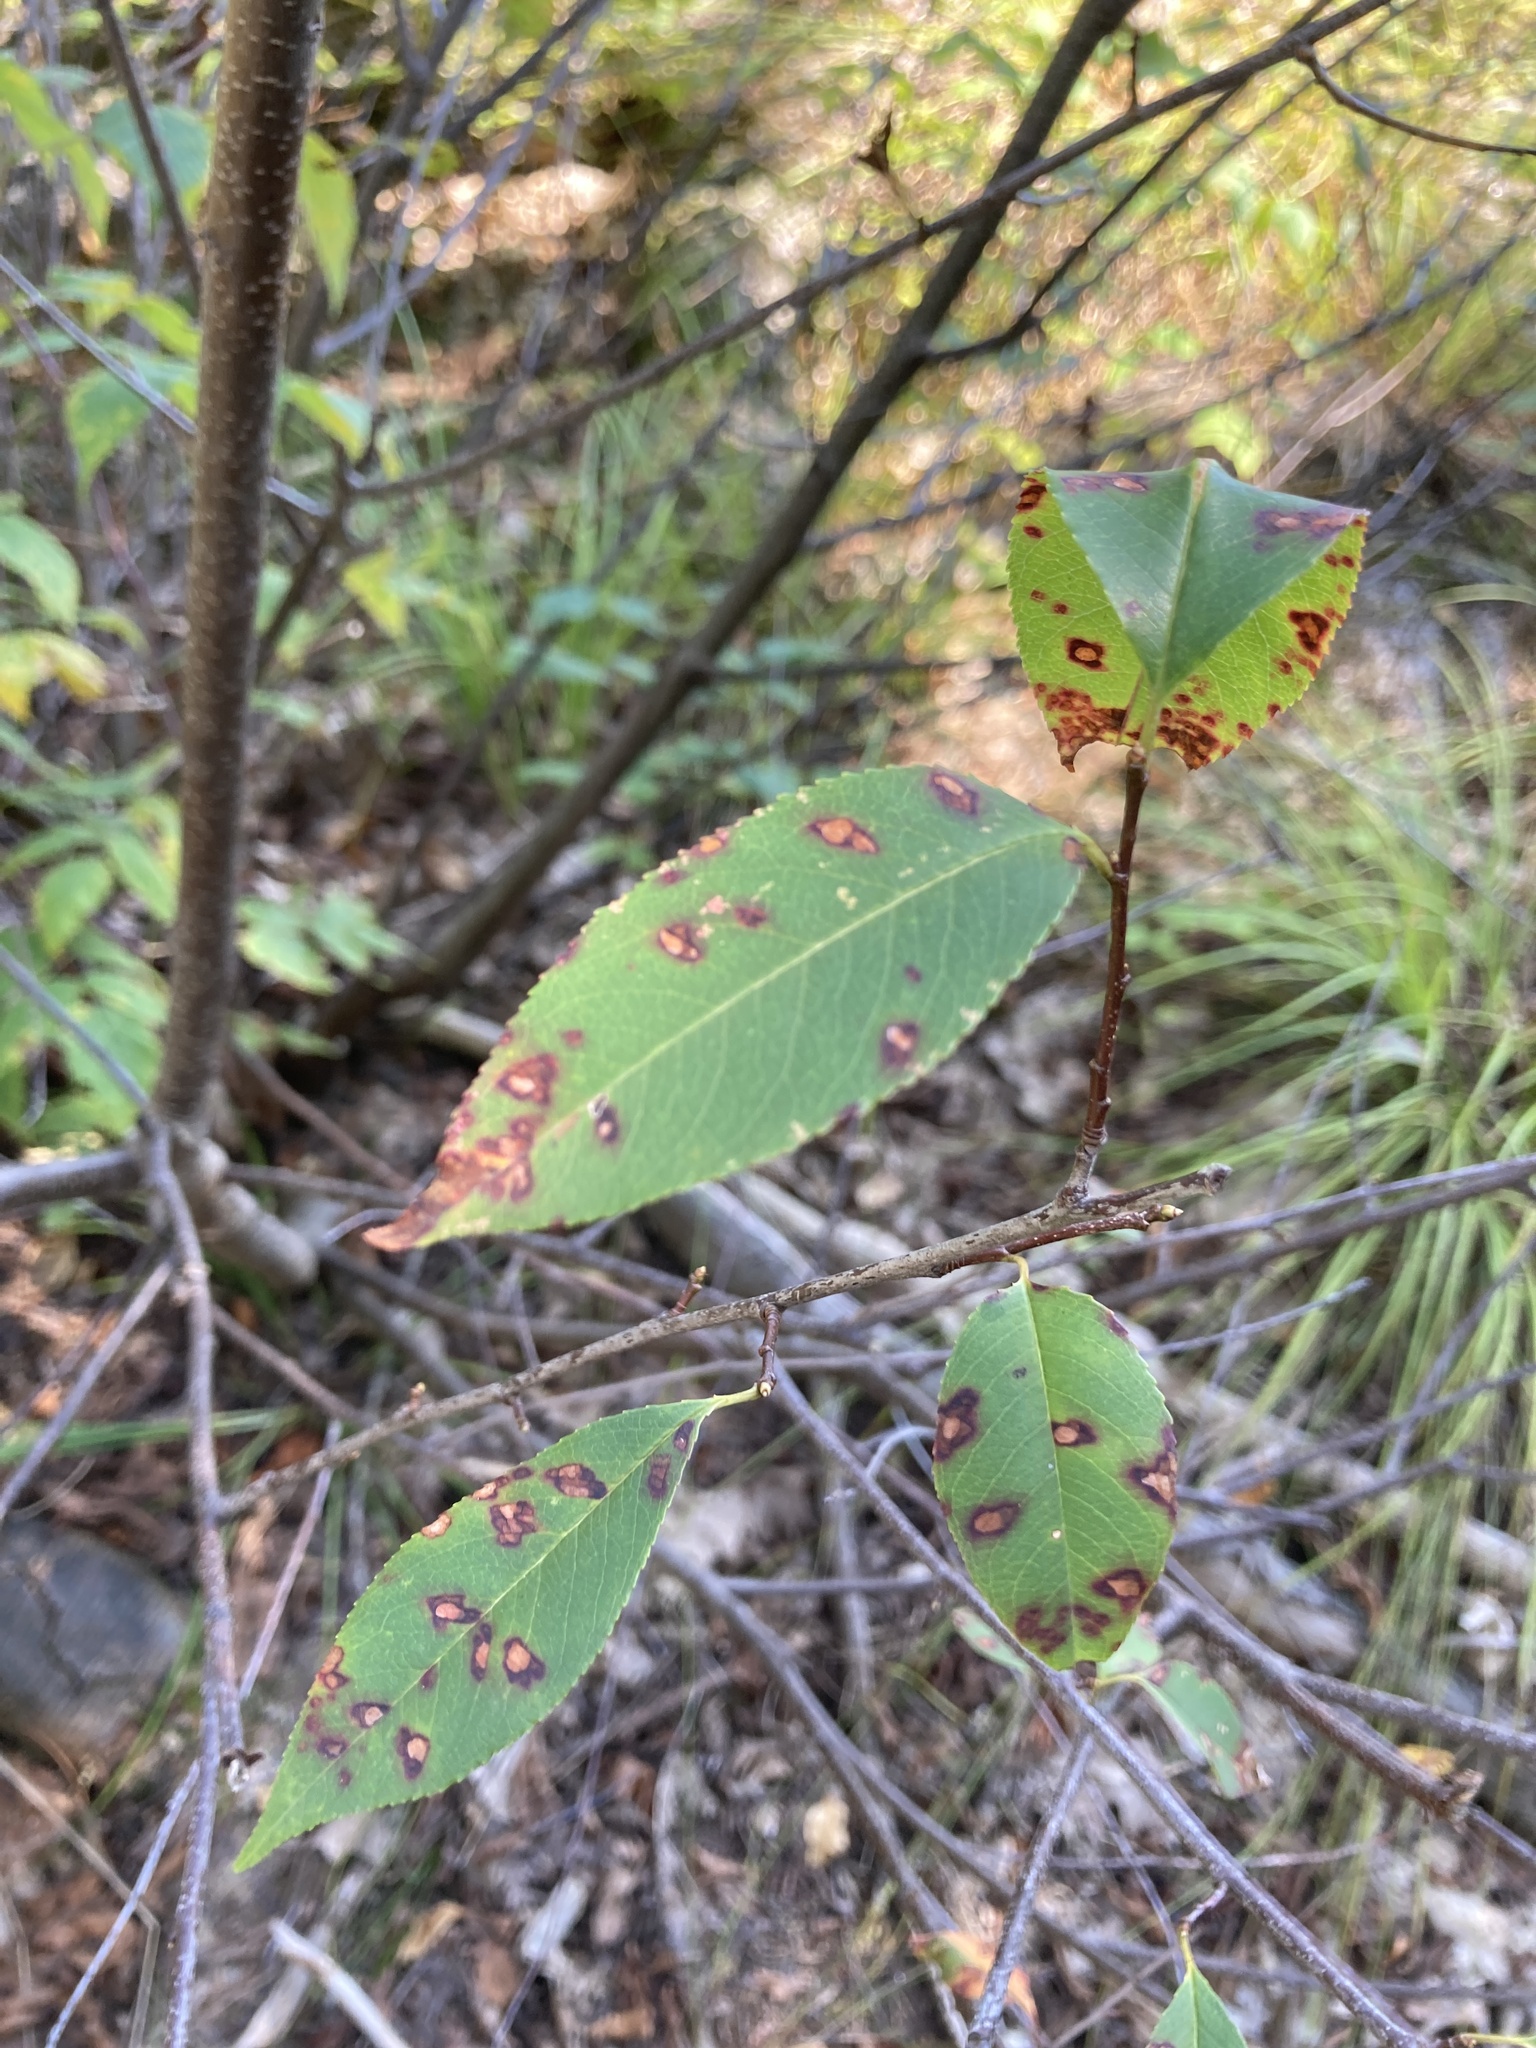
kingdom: Plantae
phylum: Tracheophyta
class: Magnoliopsida
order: Rosales
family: Rosaceae
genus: Prunus
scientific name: Prunus serotina
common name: Black cherry
